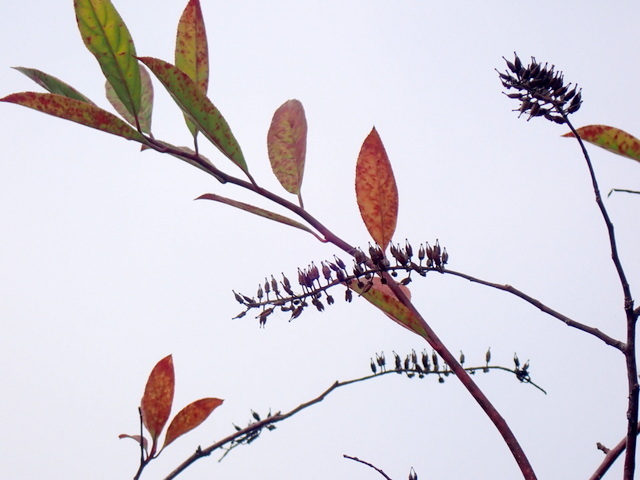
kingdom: Plantae
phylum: Tracheophyta
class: Magnoliopsida
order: Saxifragales
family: Iteaceae
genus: Itea
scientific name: Itea virginica
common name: Sweetspire
